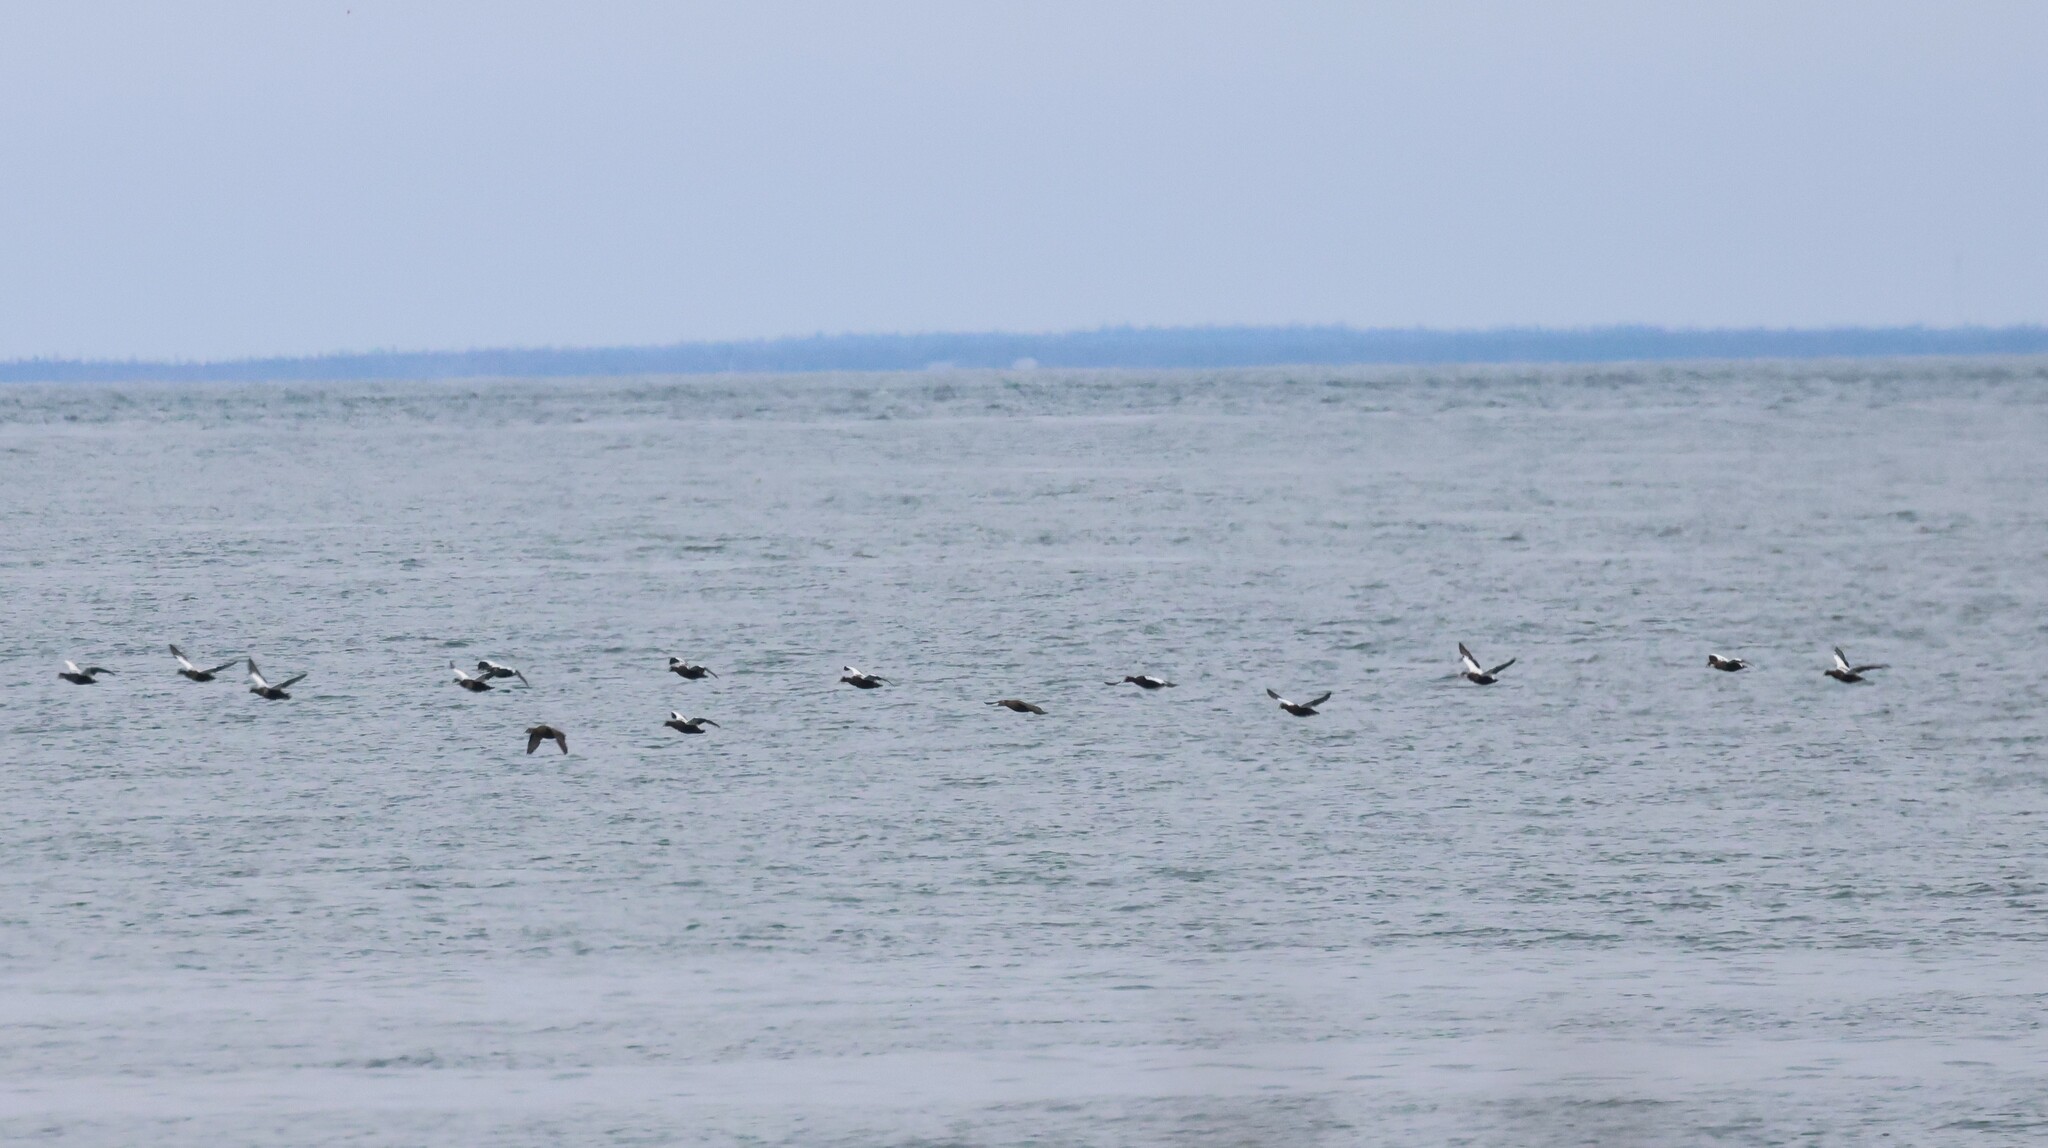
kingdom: Animalia
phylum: Chordata
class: Aves
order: Anseriformes
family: Anatidae
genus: Somateria
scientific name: Somateria mollissima
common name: Common eider
